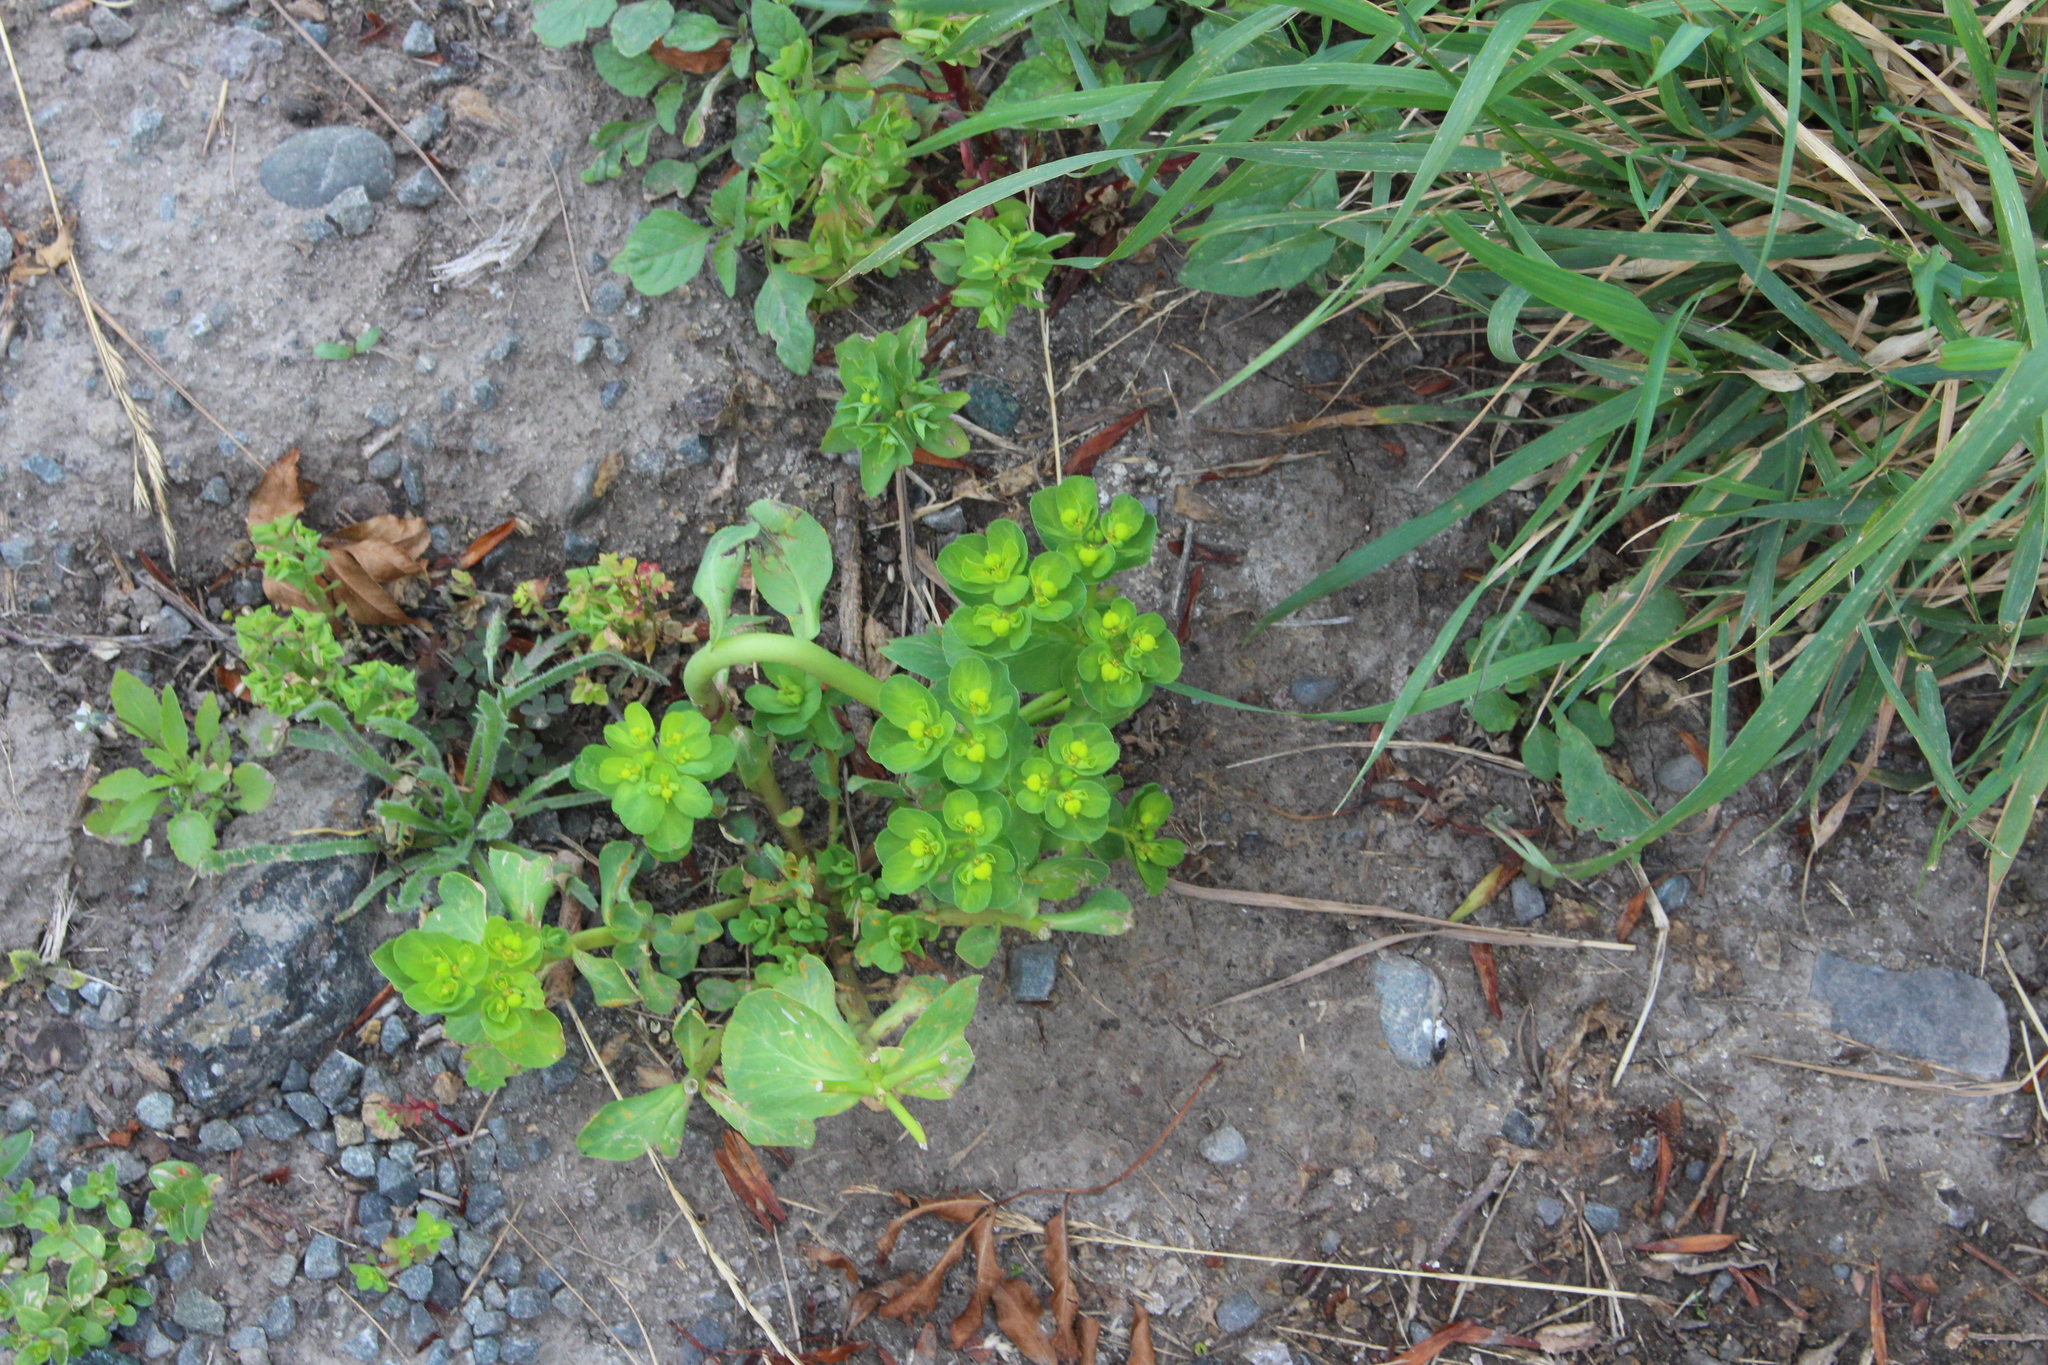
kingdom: Plantae
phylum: Tracheophyta
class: Magnoliopsida
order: Malpighiales
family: Euphorbiaceae
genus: Euphorbia
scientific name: Euphorbia helioscopia
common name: Sun spurge
